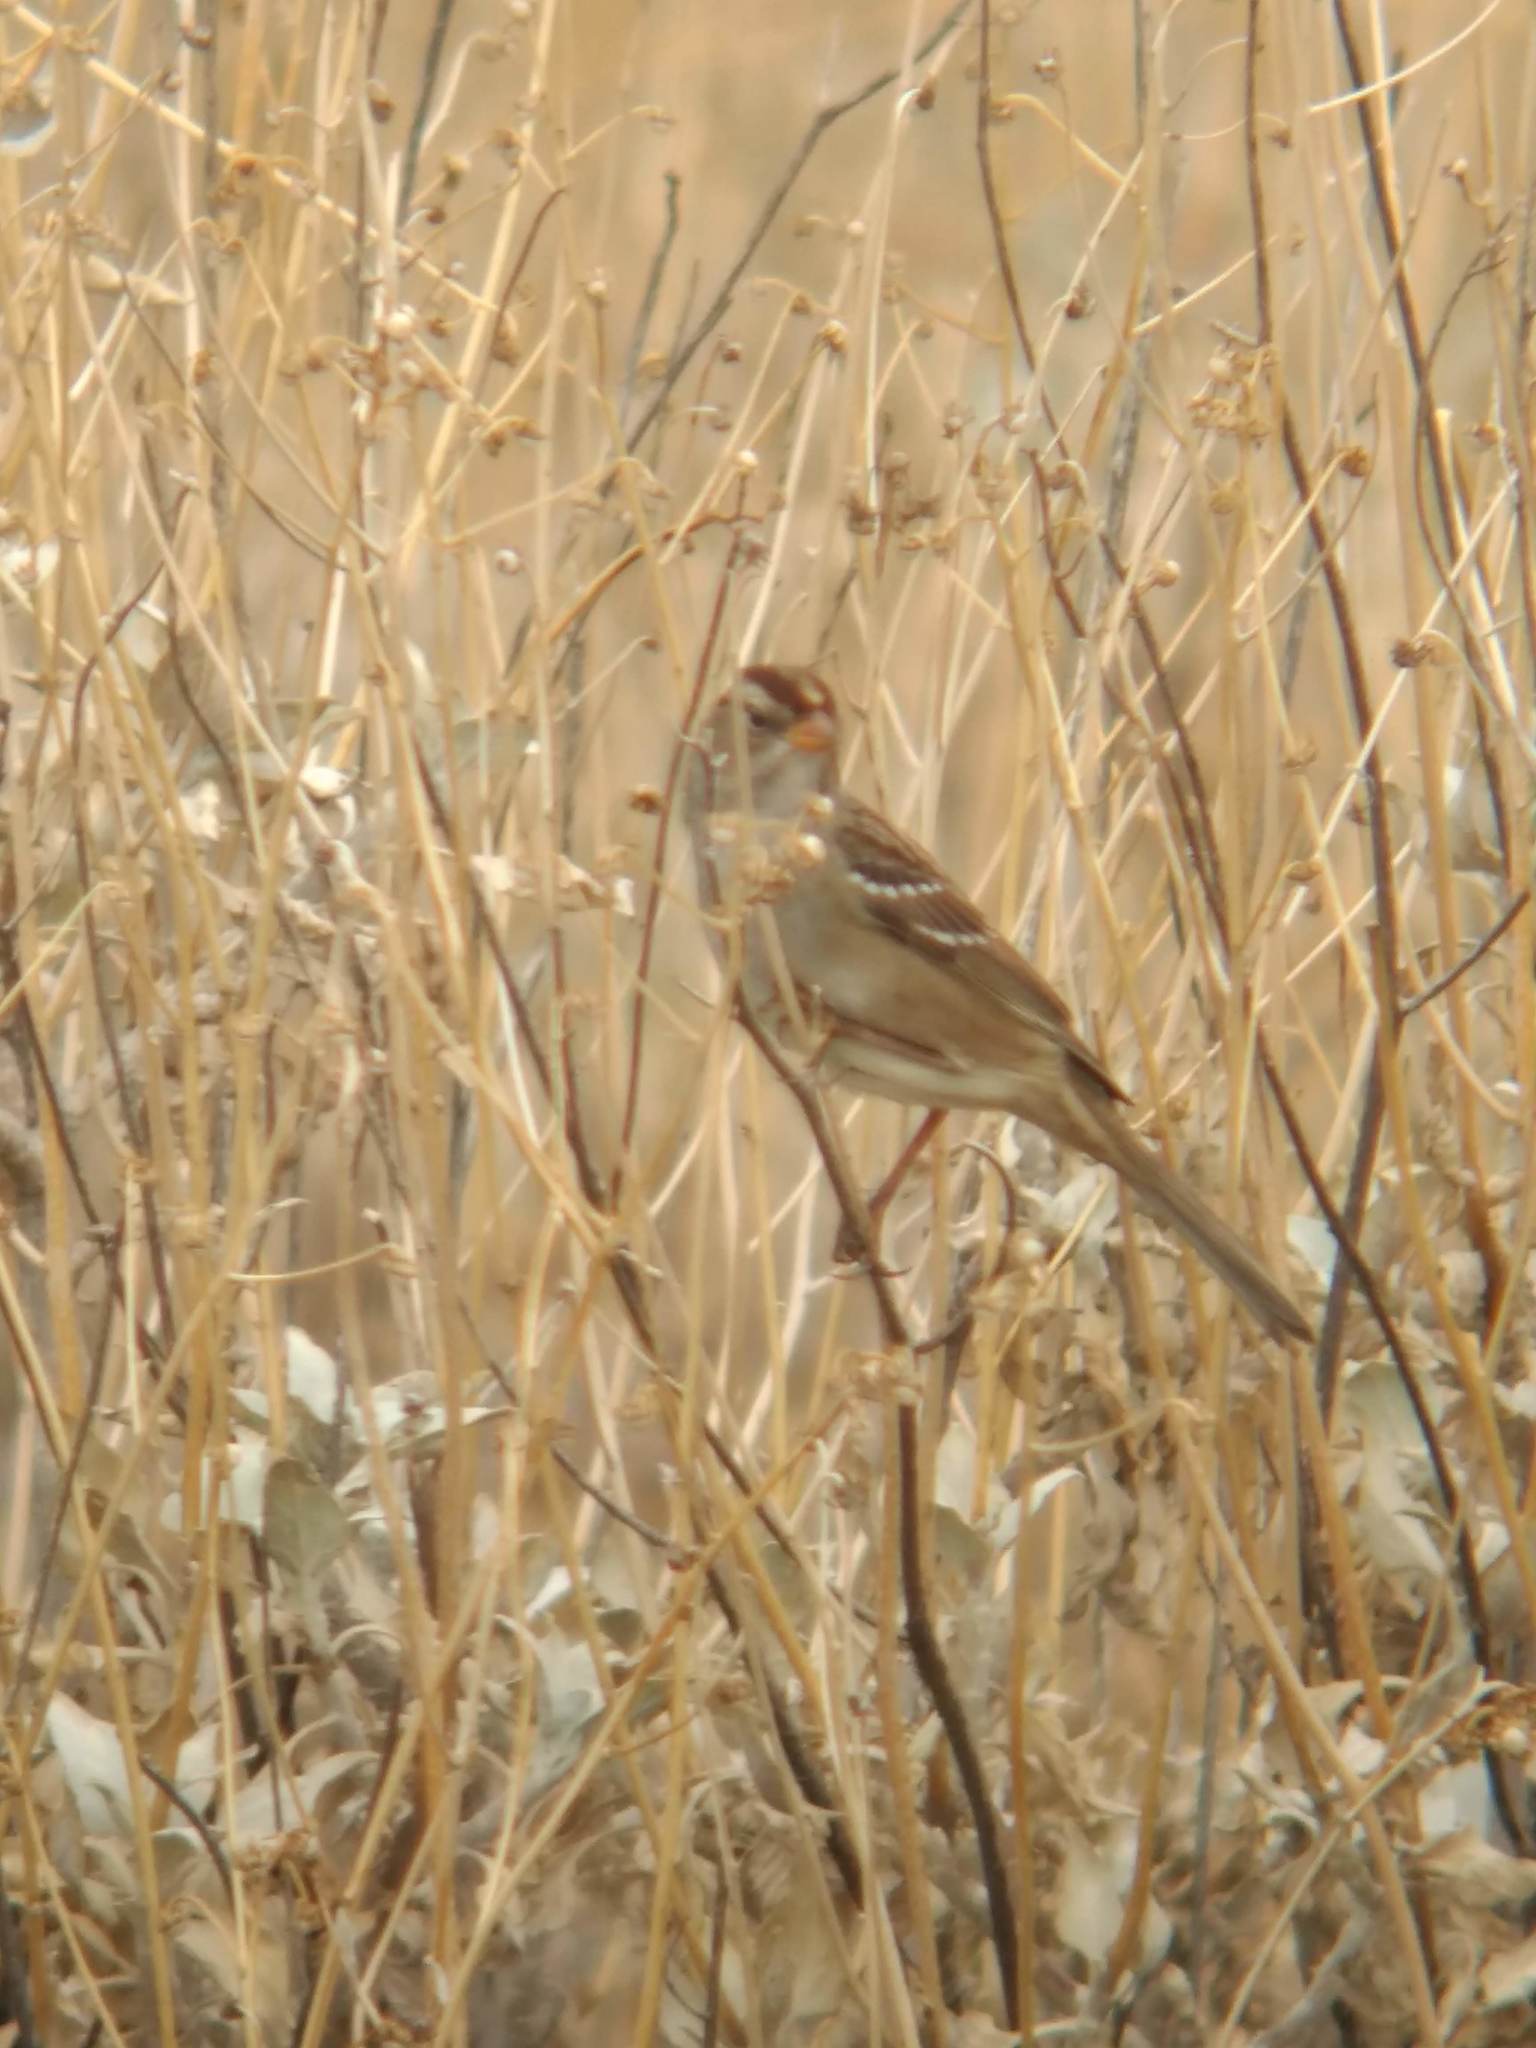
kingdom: Animalia
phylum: Chordata
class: Aves
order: Passeriformes
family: Passerellidae
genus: Zonotrichia
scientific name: Zonotrichia leucophrys
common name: White-crowned sparrow
